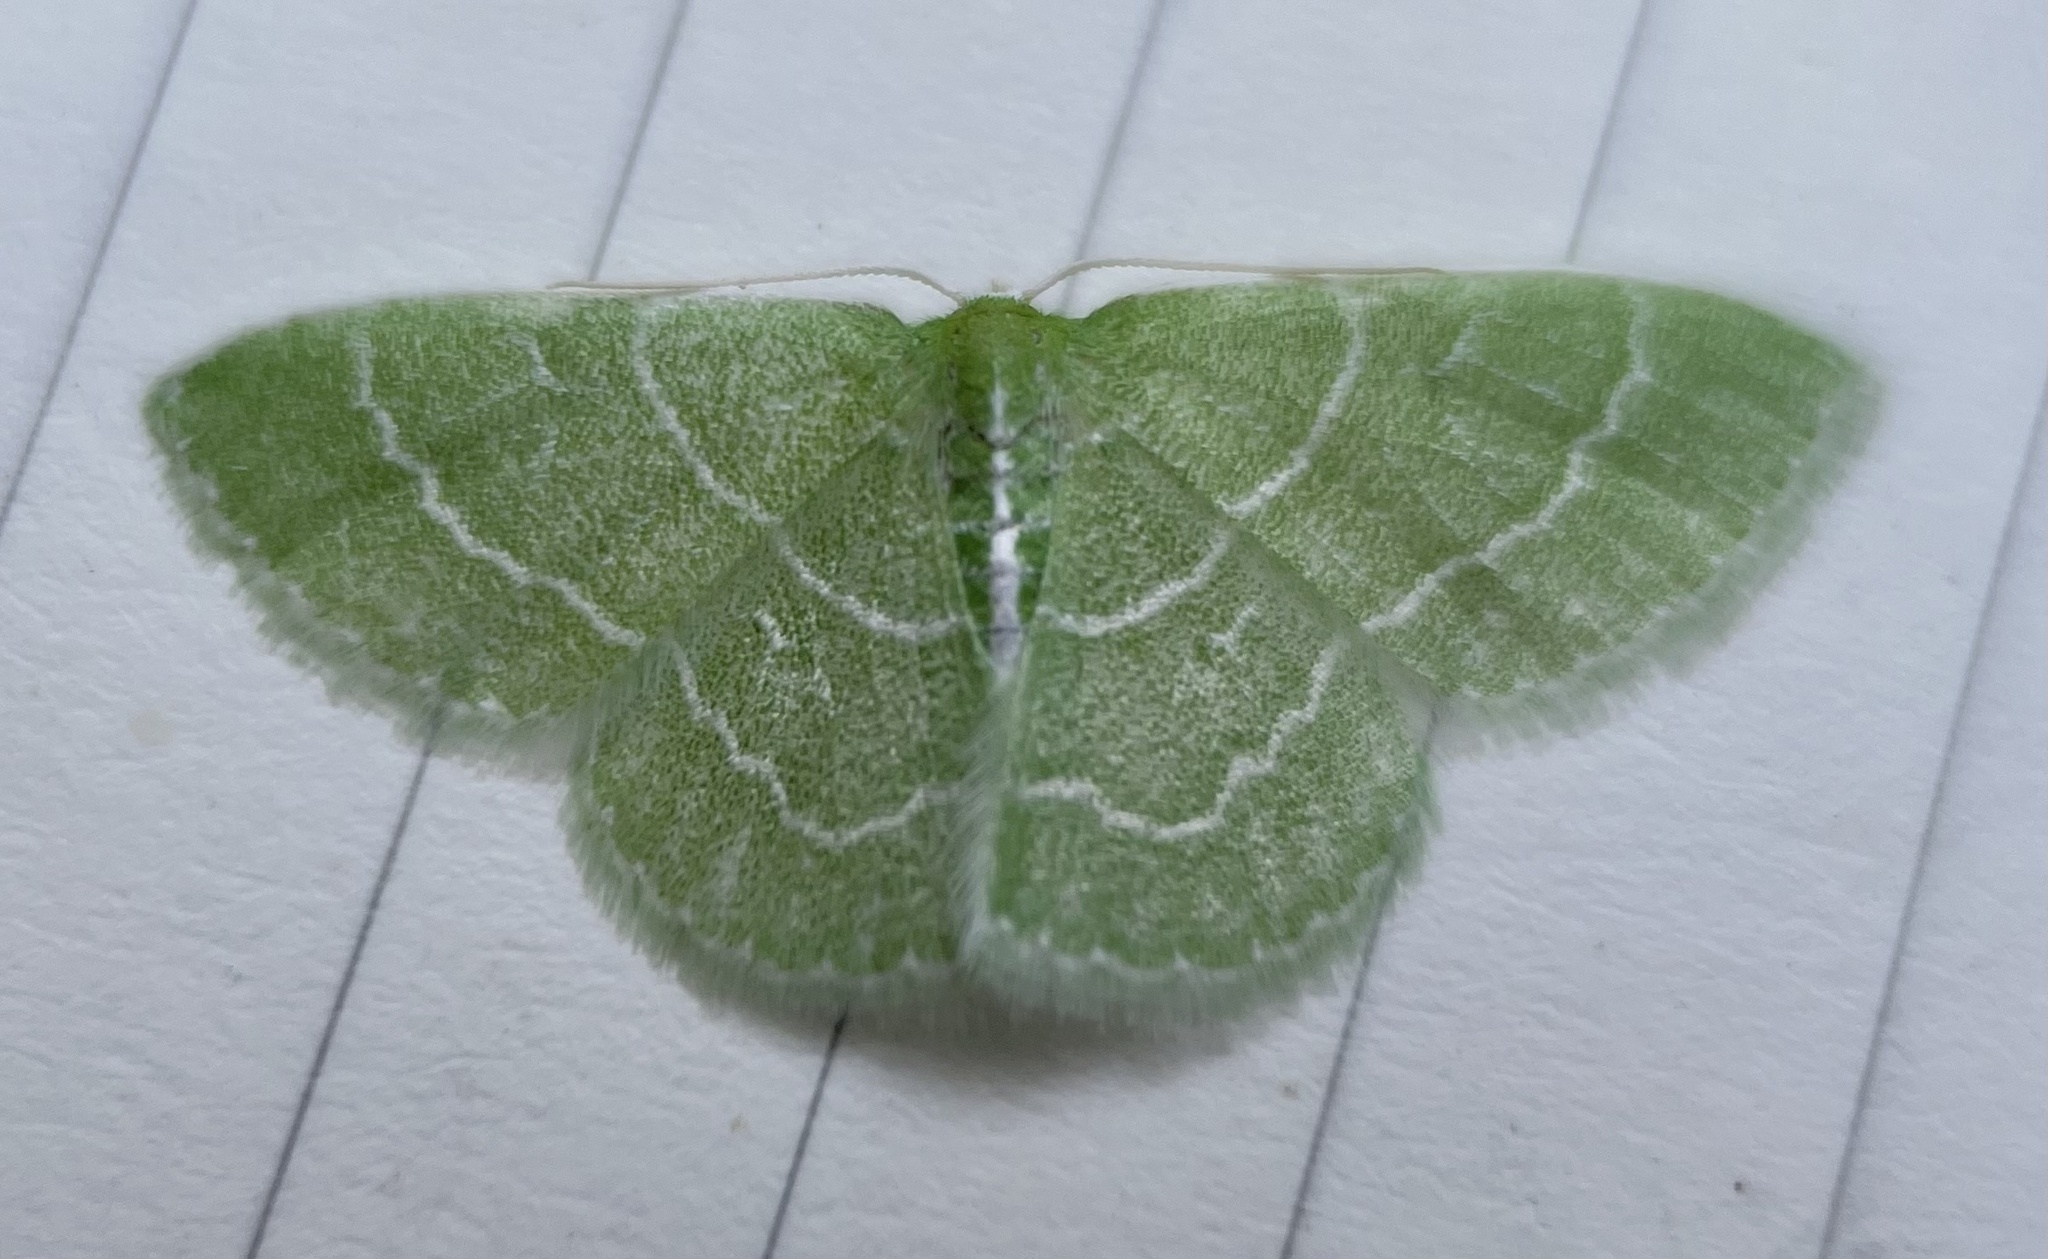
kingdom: Animalia
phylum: Arthropoda
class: Insecta
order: Lepidoptera
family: Geometridae
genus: Synchlora
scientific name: Synchlora aerata
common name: Wavy-lined emerald
